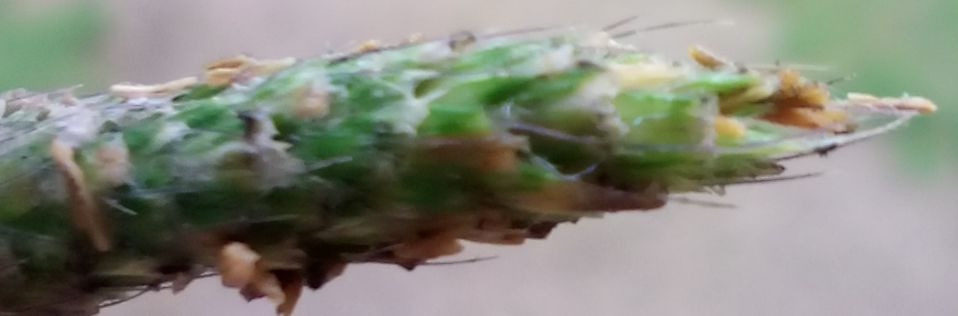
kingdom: Plantae
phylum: Tracheophyta
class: Liliopsida
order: Poales
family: Poaceae
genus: Alopecurus
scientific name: Alopecurus geniculatus
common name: Water foxtail
